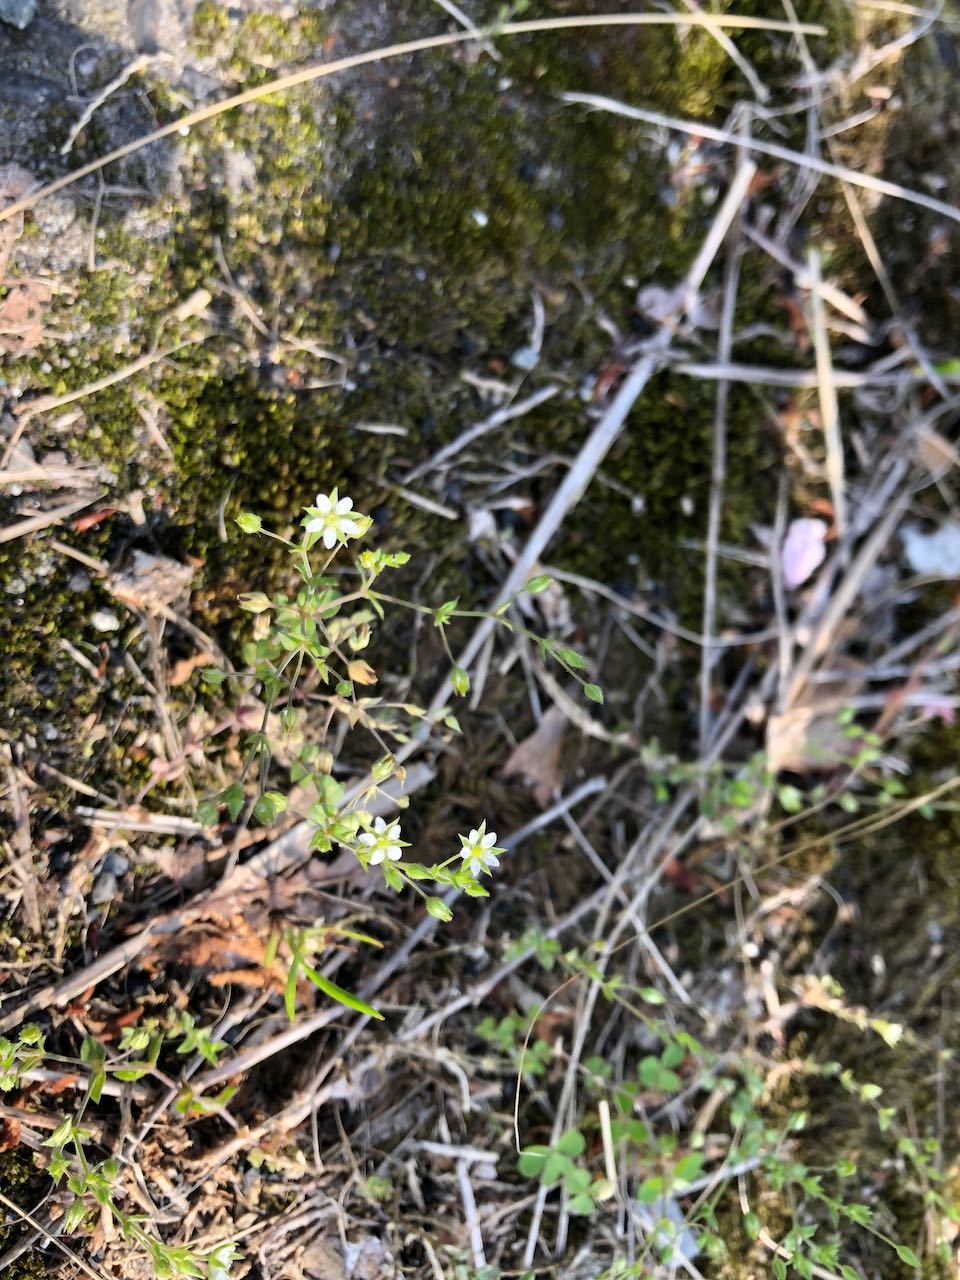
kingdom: Plantae
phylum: Tracheophyta
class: Magnoliopsida
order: Caryophyllales
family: Caryophyllaceae
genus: Arenaria
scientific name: Arenaria serpyllifolia
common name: Thyme-leaved sandwort
